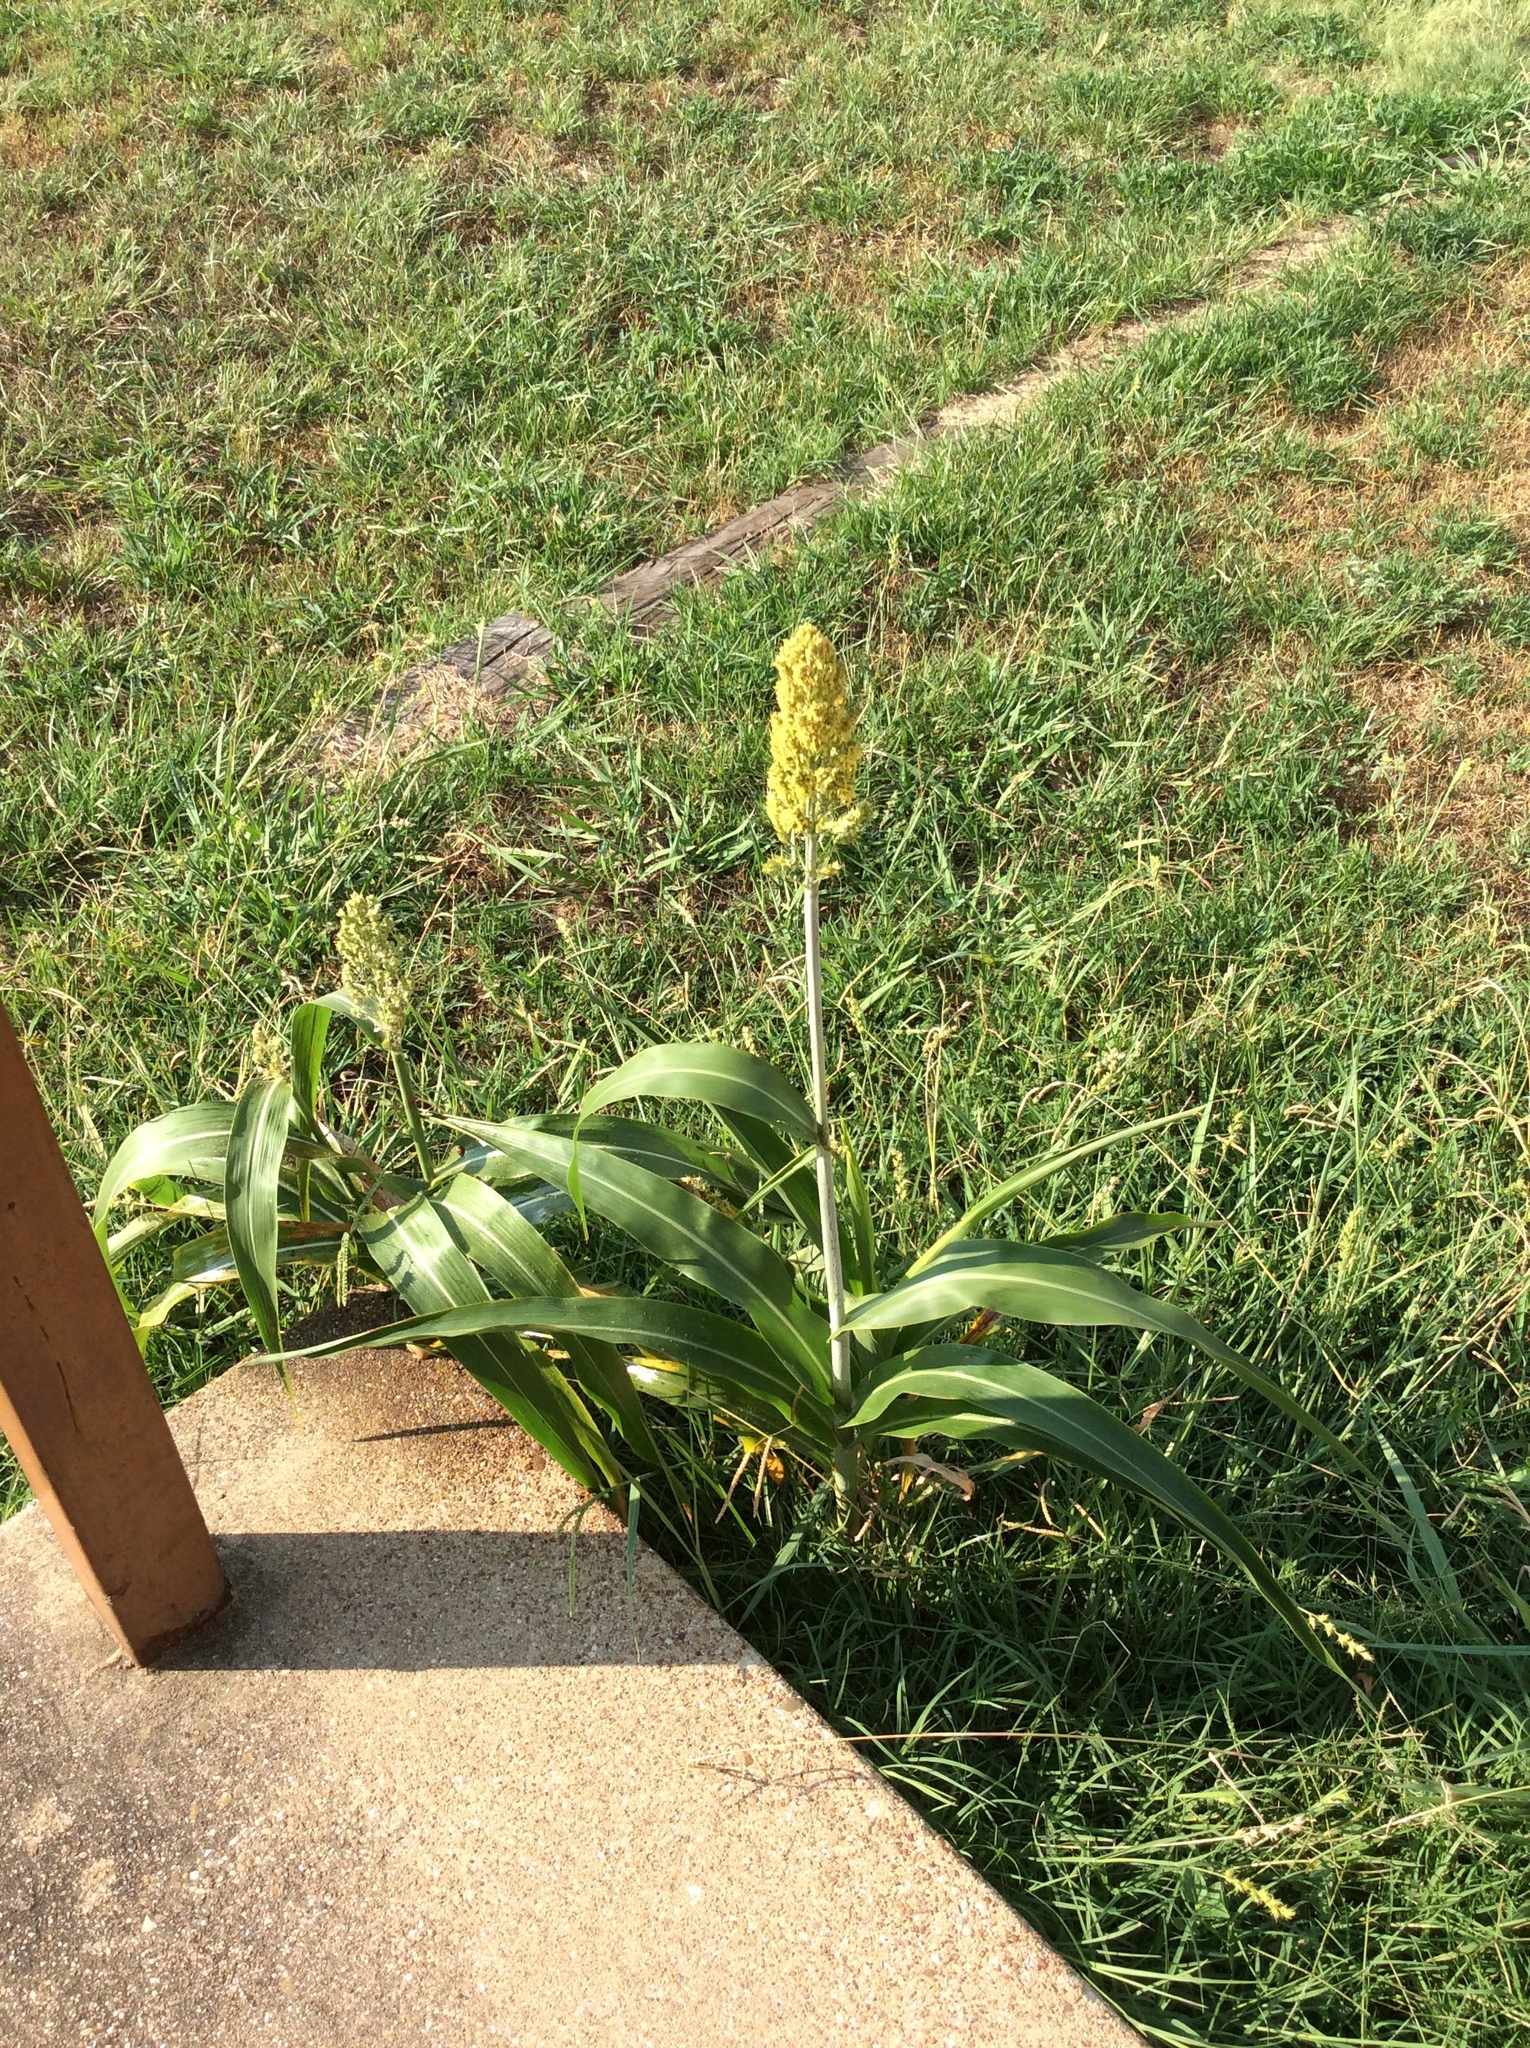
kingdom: Plantae
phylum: Tracheophyta
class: Liliopsida
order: Poales
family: Poaceae
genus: Sorghum
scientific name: Sorghum bicolor
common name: Sorghum
